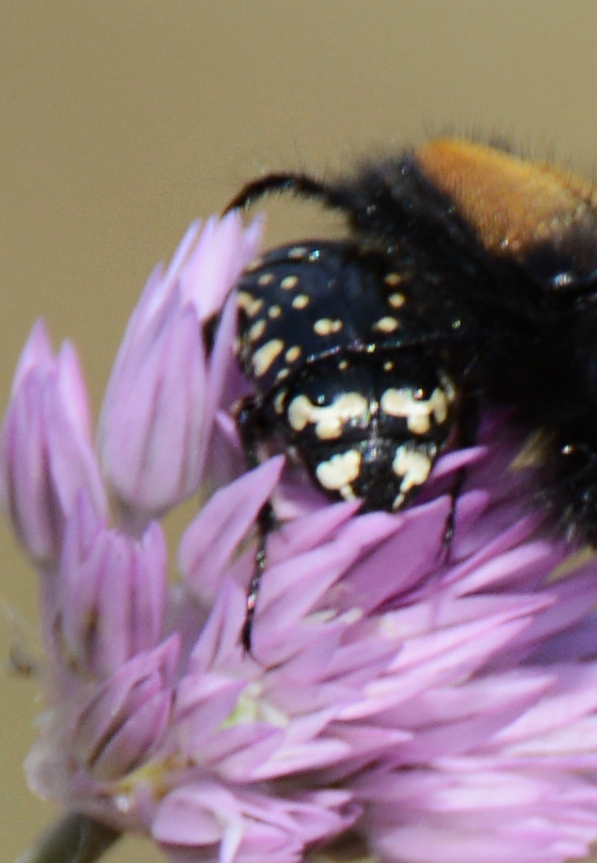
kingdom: Animalia
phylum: Arthropoda
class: Insecta
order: Coleoptera
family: Scarabaeidae
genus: Oxythyrea
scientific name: Oxythyrea cinctella
